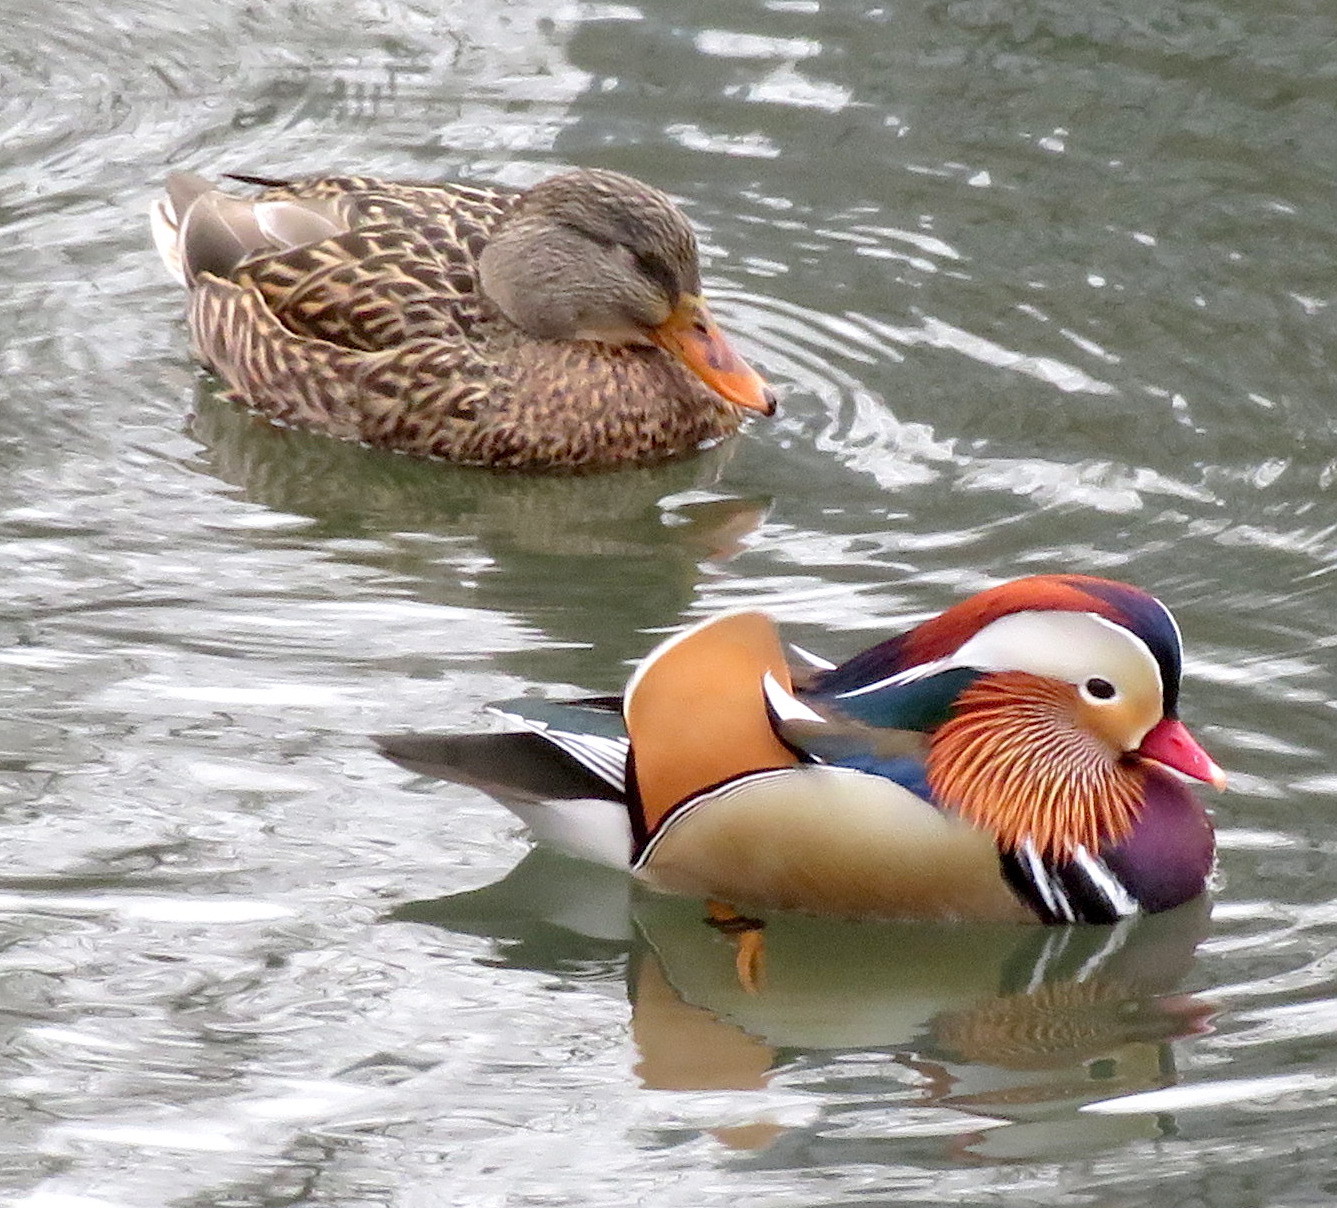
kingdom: Animalia
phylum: Chordata
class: Aves
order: Anseriformes
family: Anatidae
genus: Aix
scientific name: Aix galericulata
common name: Mandarin duck
